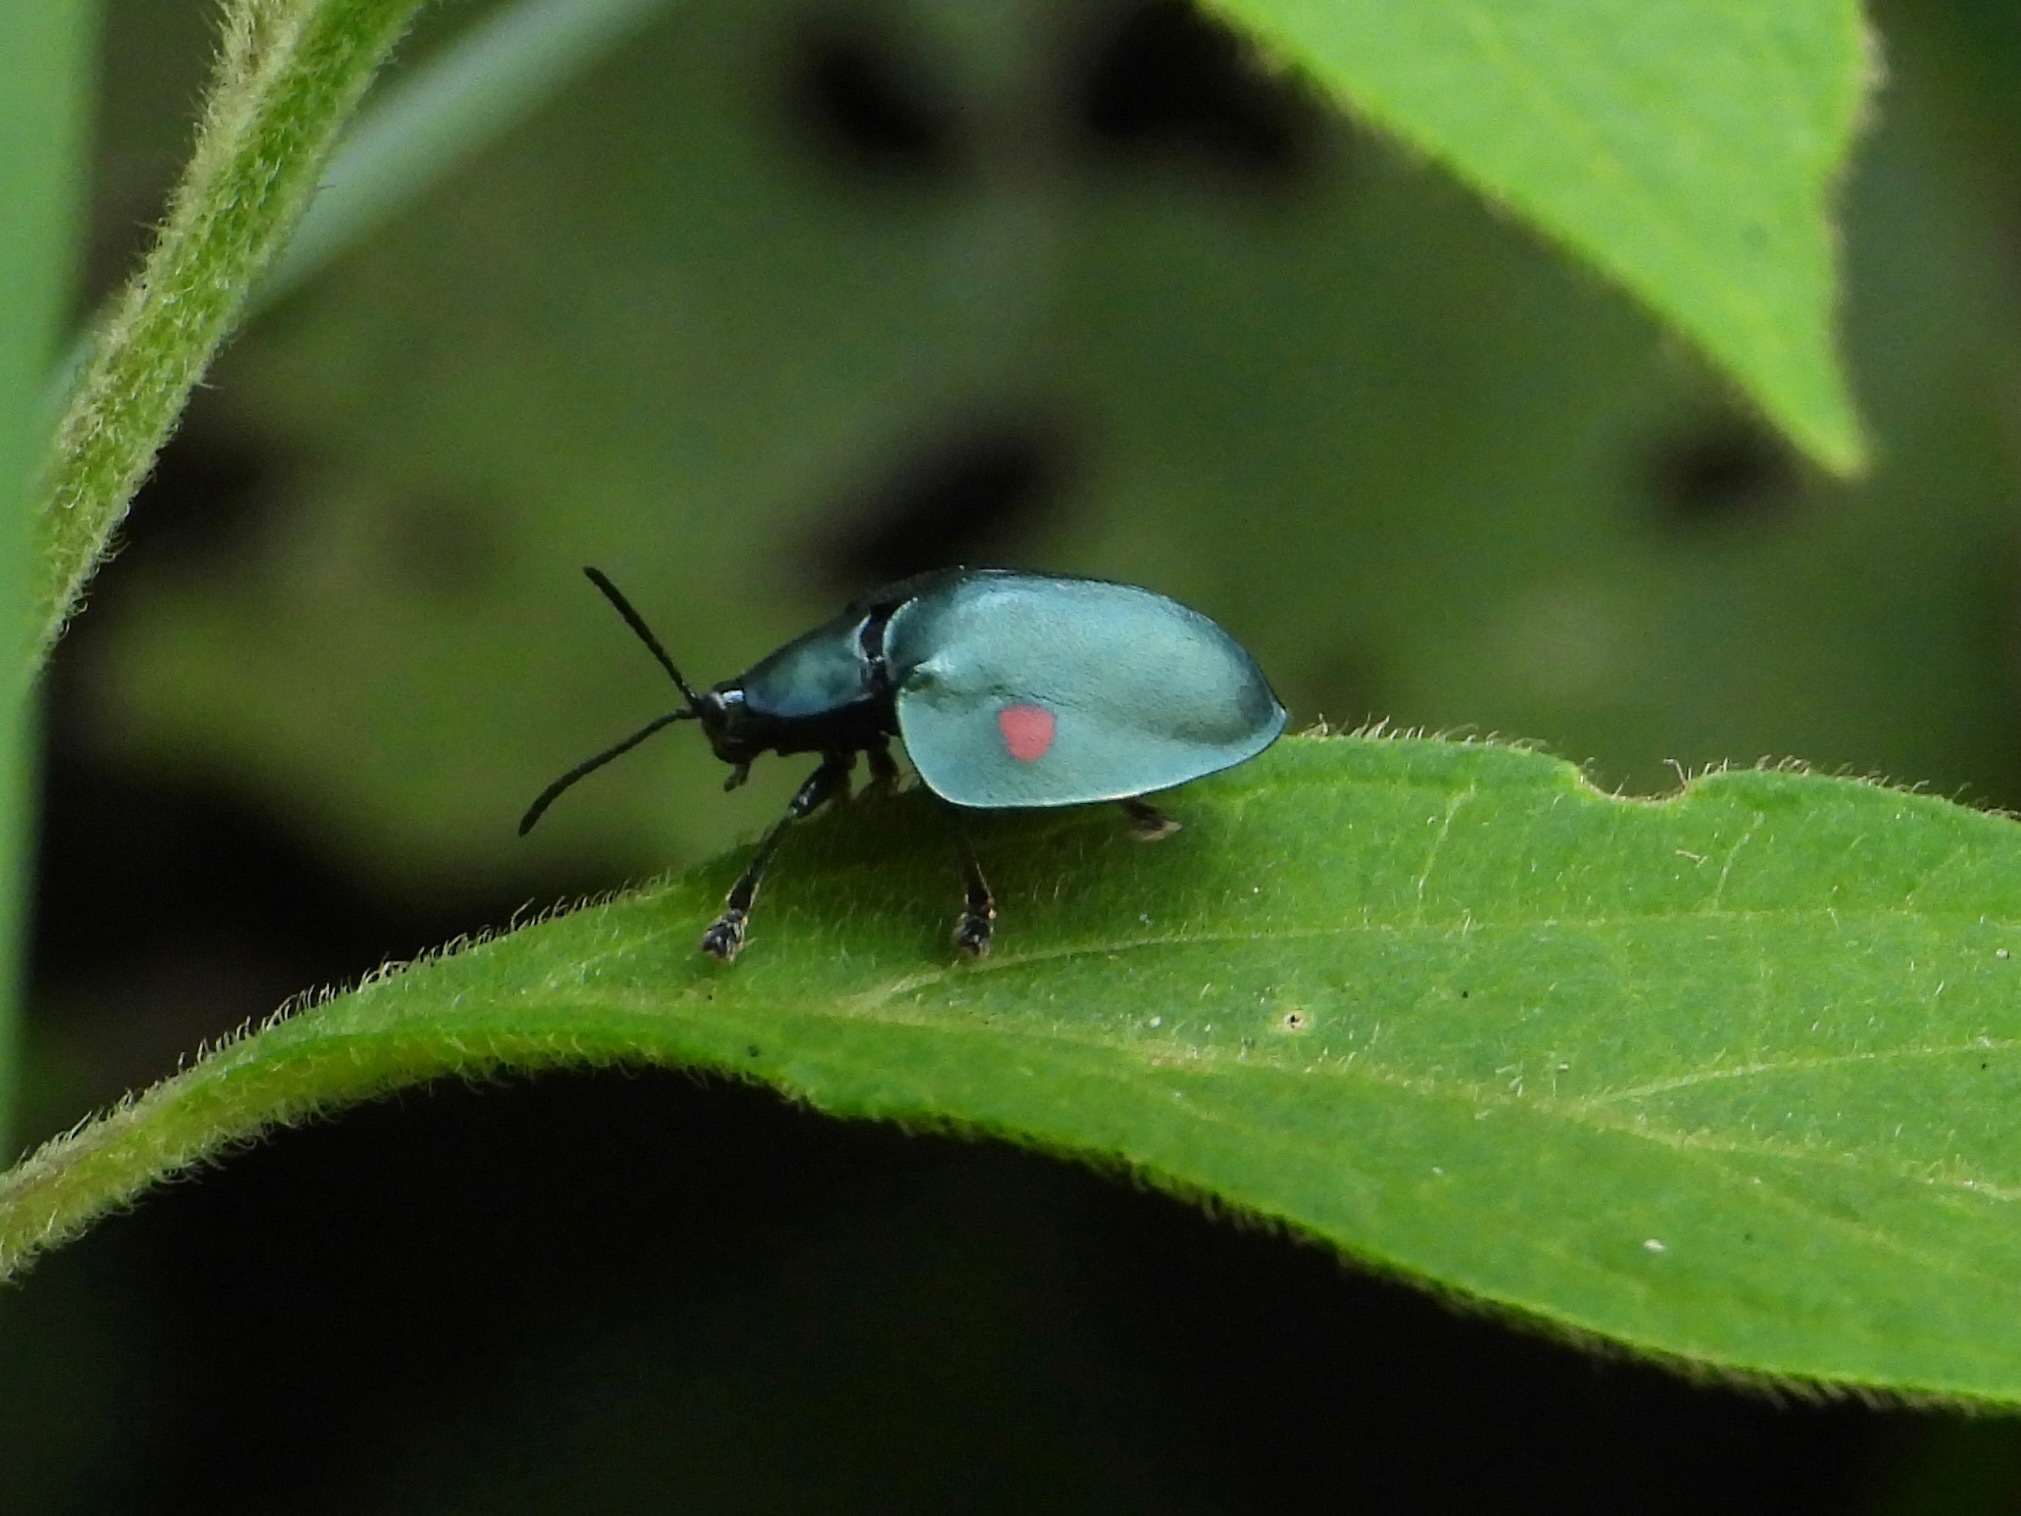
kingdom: Animalia
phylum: Arthropoda
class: Insecta
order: Coleoptera
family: Chrysomelidae
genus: Stolas
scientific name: Stolas
